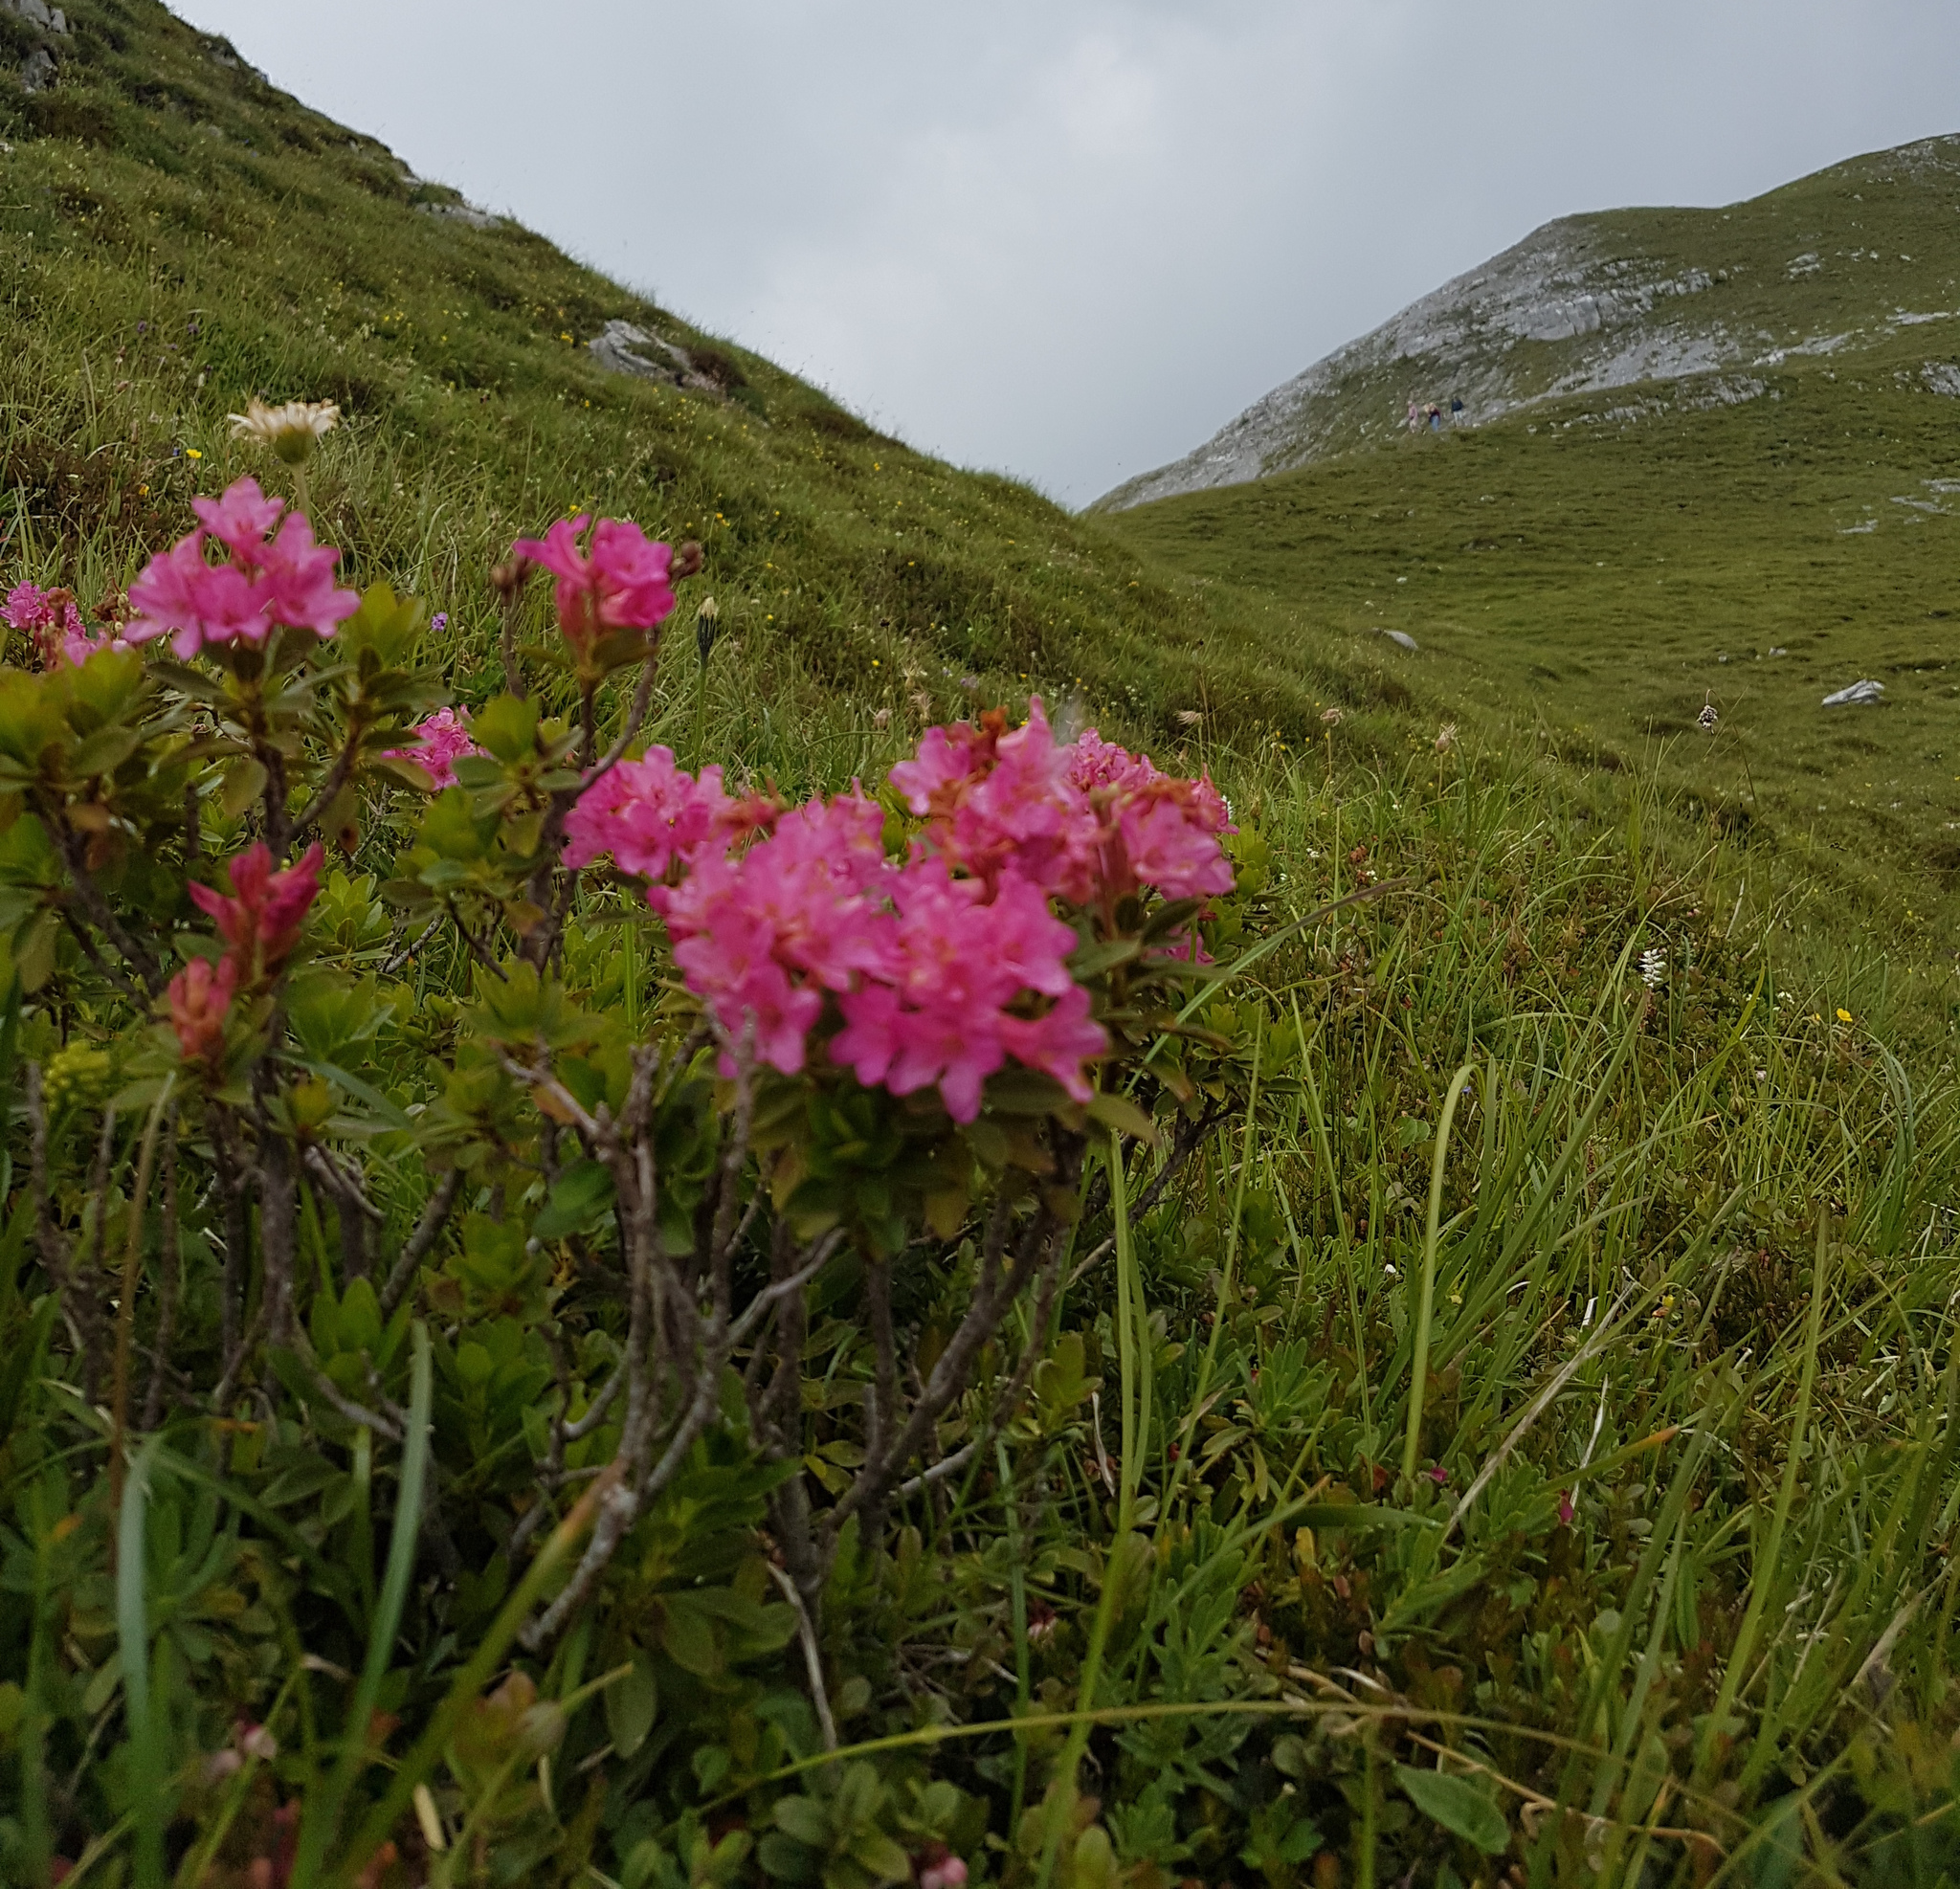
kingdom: Plantae
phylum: Tracheophyta
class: Magnoliopsida
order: Ericales
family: Ericaceae
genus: Rhododendron
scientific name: Rhododendron ferrugineum
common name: Alpenrose
